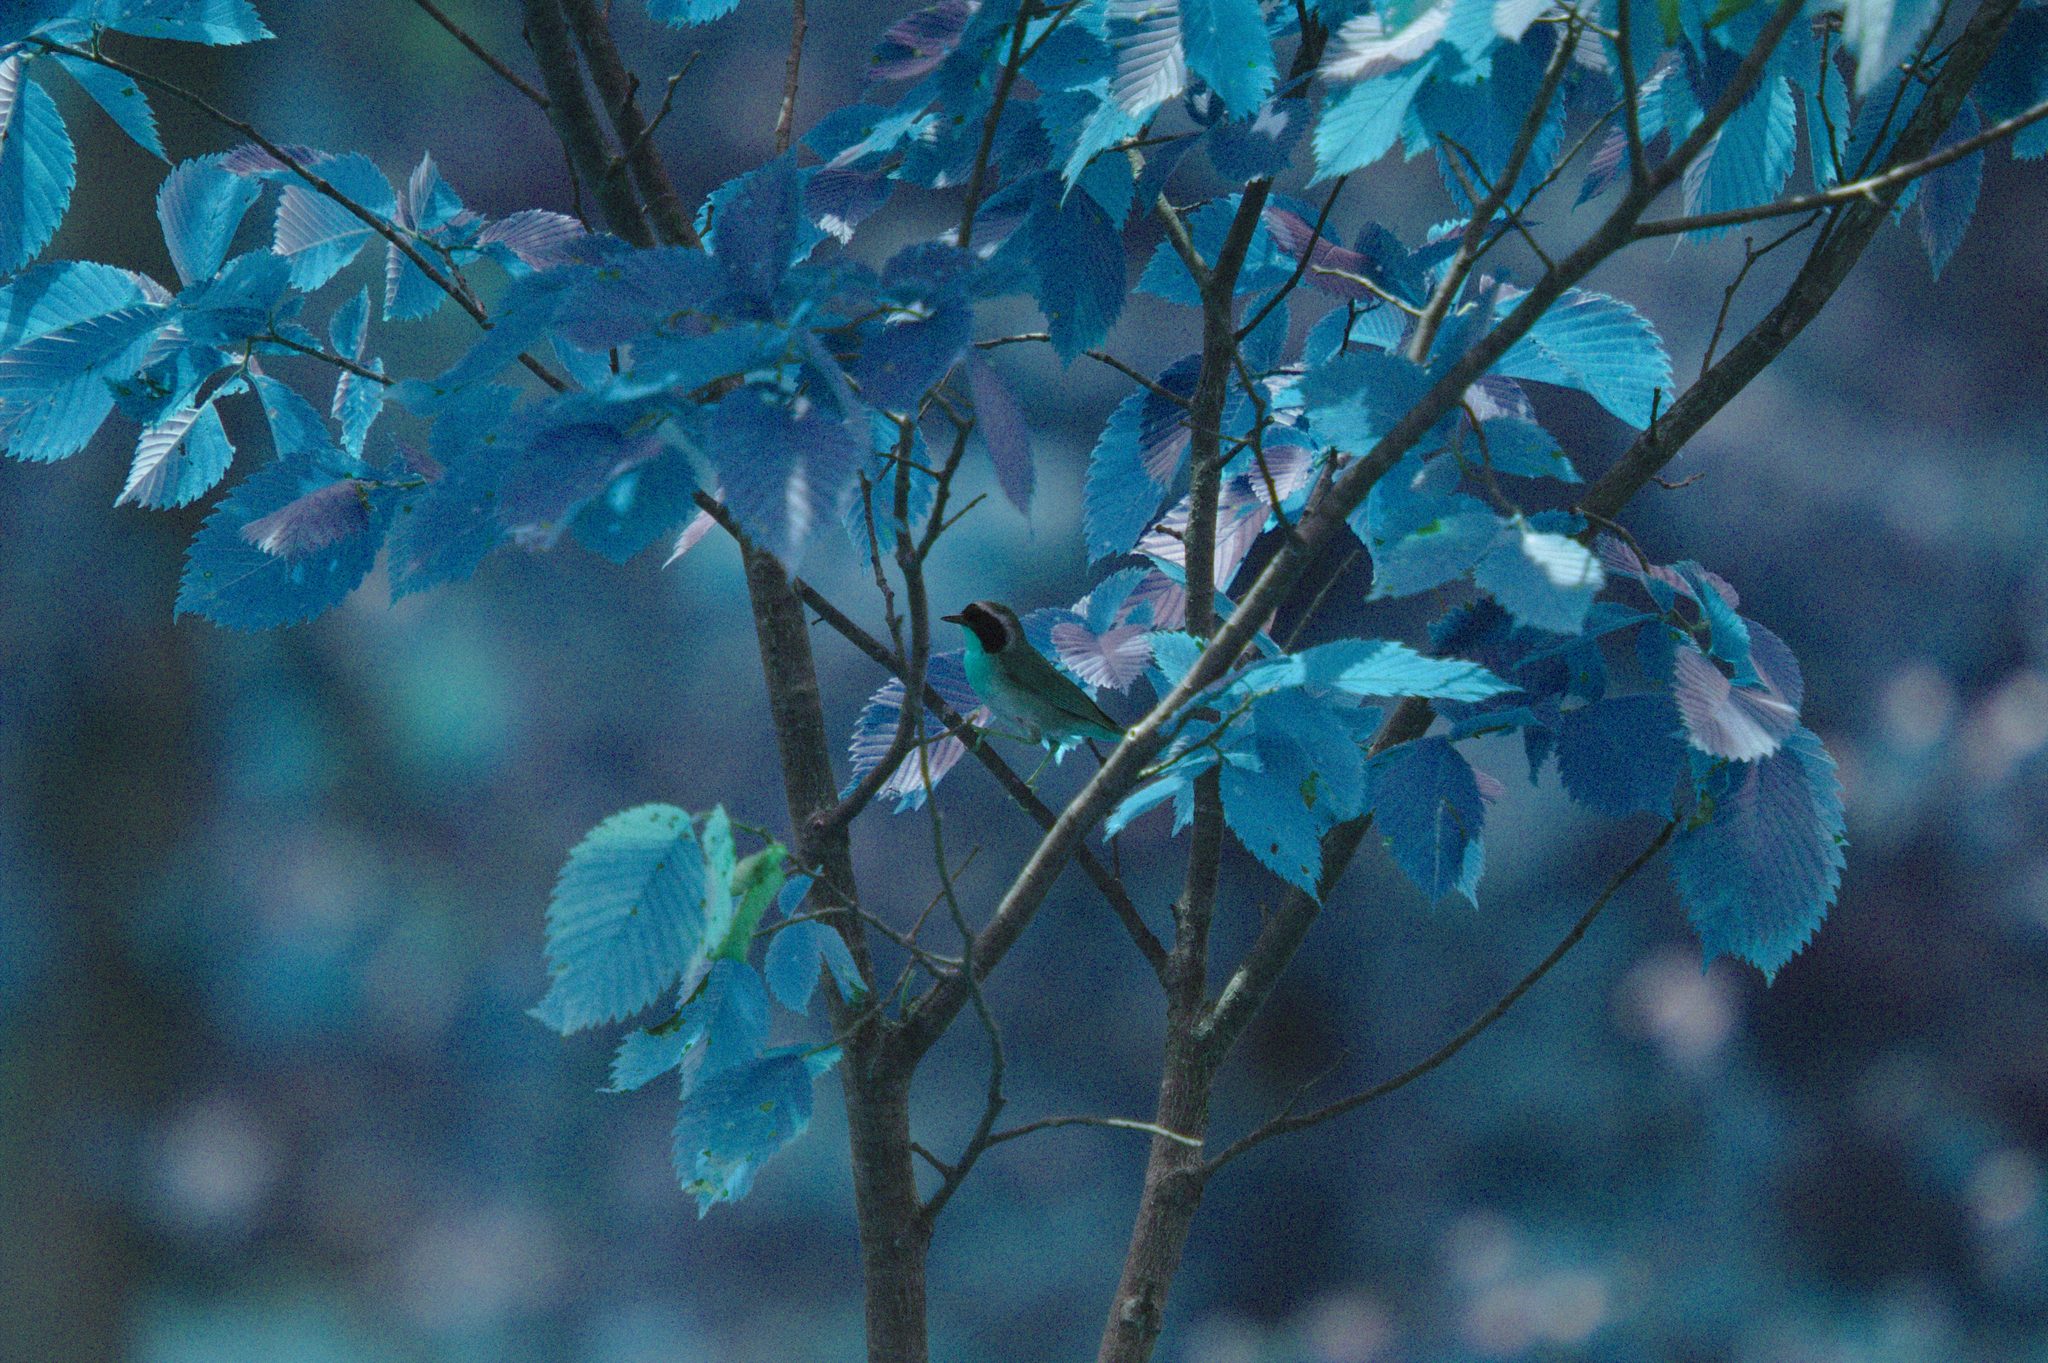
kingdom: Animalia
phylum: Chordata
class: Aves
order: Passeriformes
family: Parulidae
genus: Geothlypis
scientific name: Geothlypis trichas
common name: Common yellowthroat
